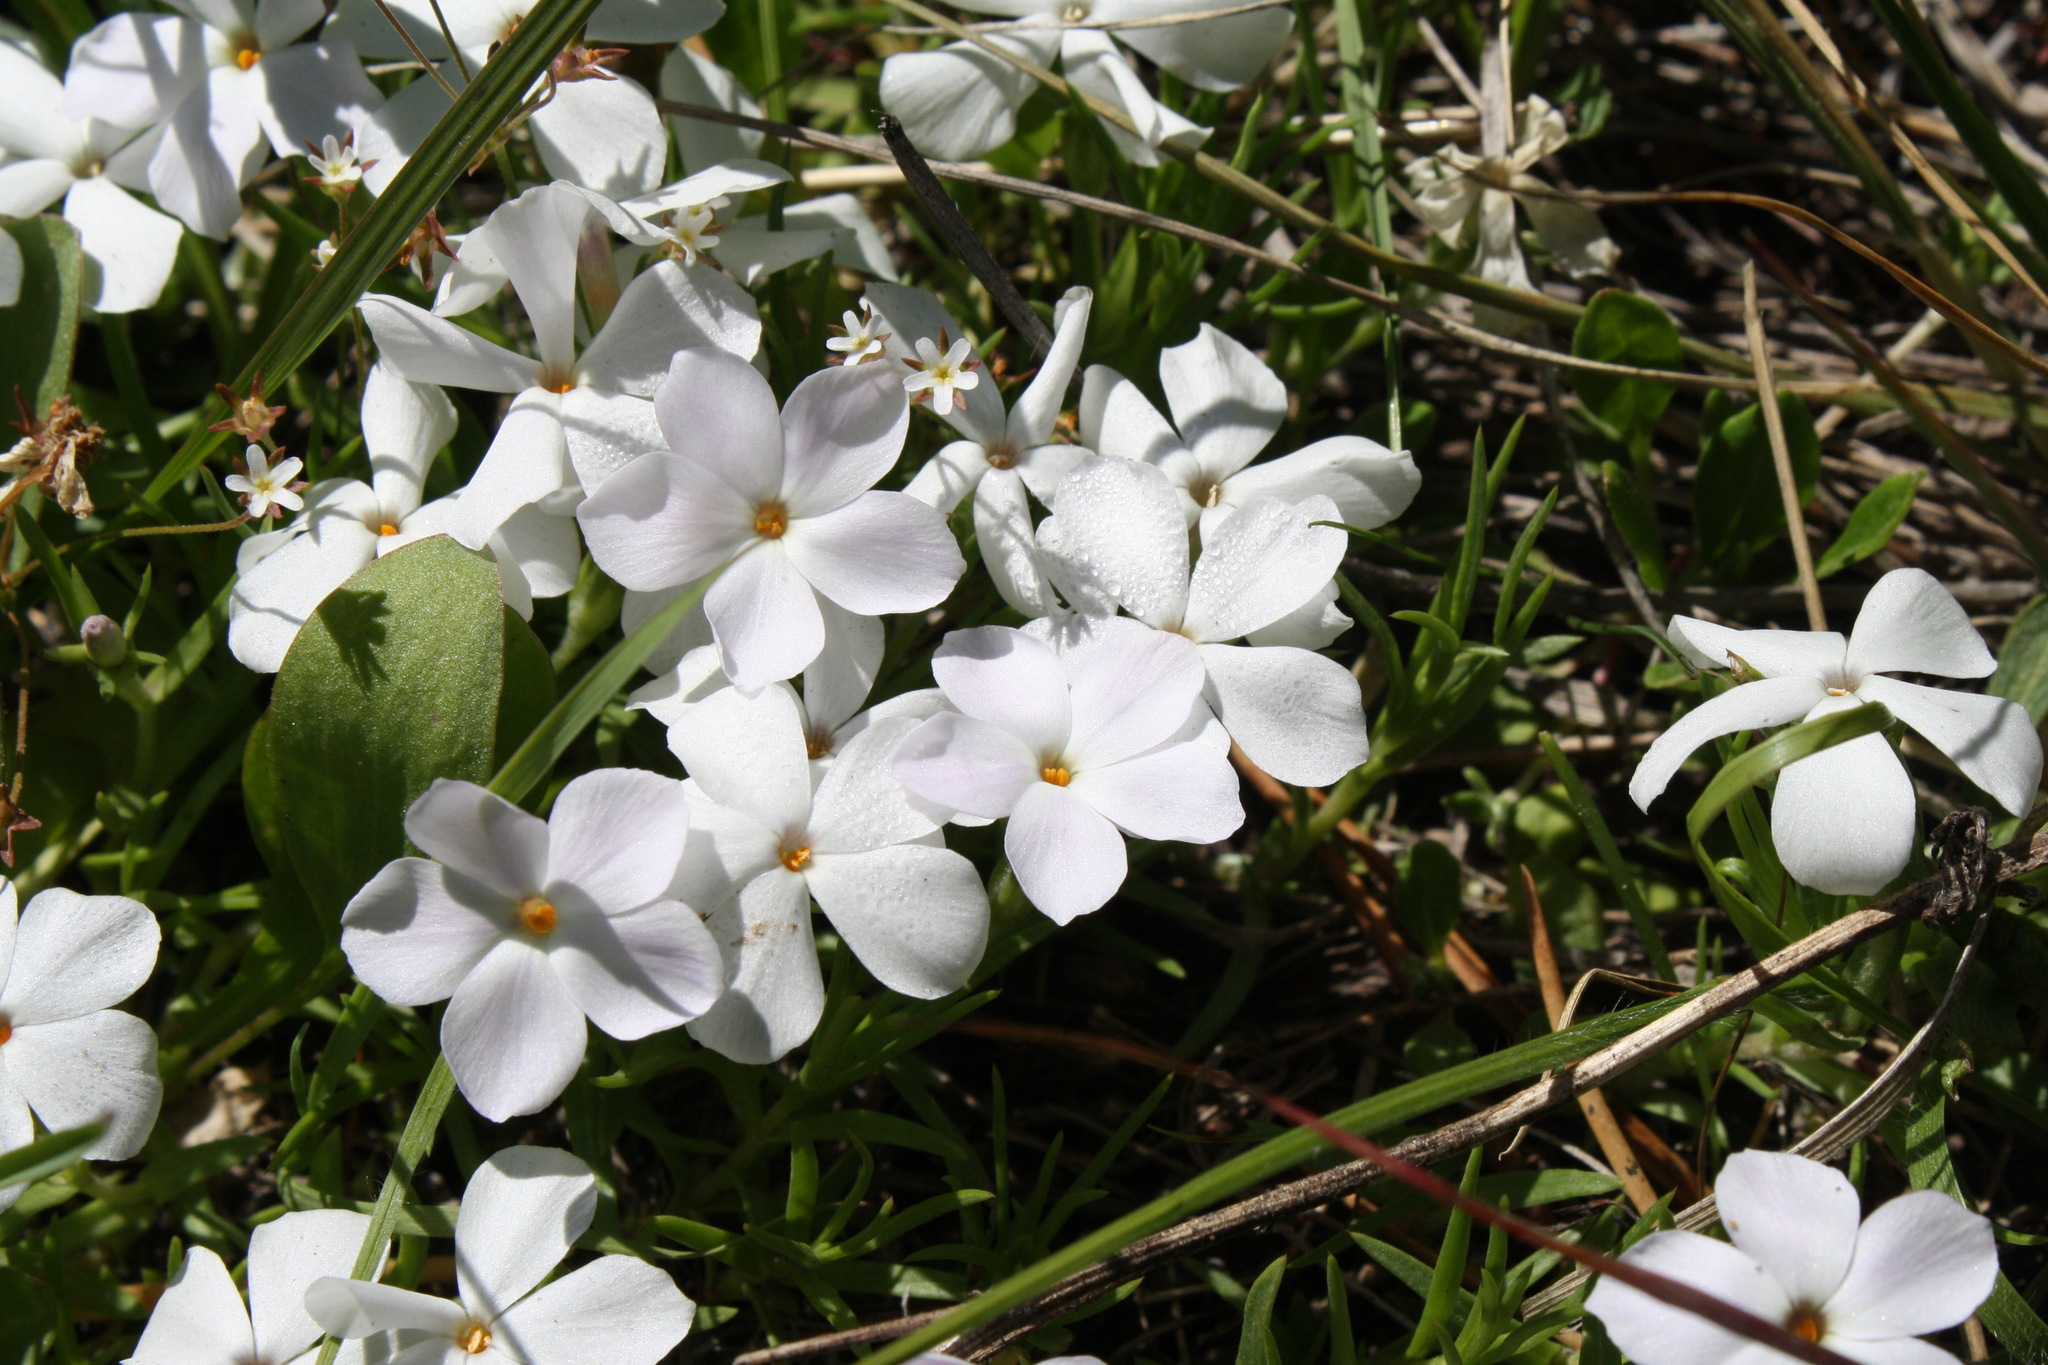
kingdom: Plantae
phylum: Tracheophyta
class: Magnoliopsida
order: Ericales
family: Polemoniaceae
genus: Phlox
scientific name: Phlox multiflora
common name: Rocky mountain phlox
